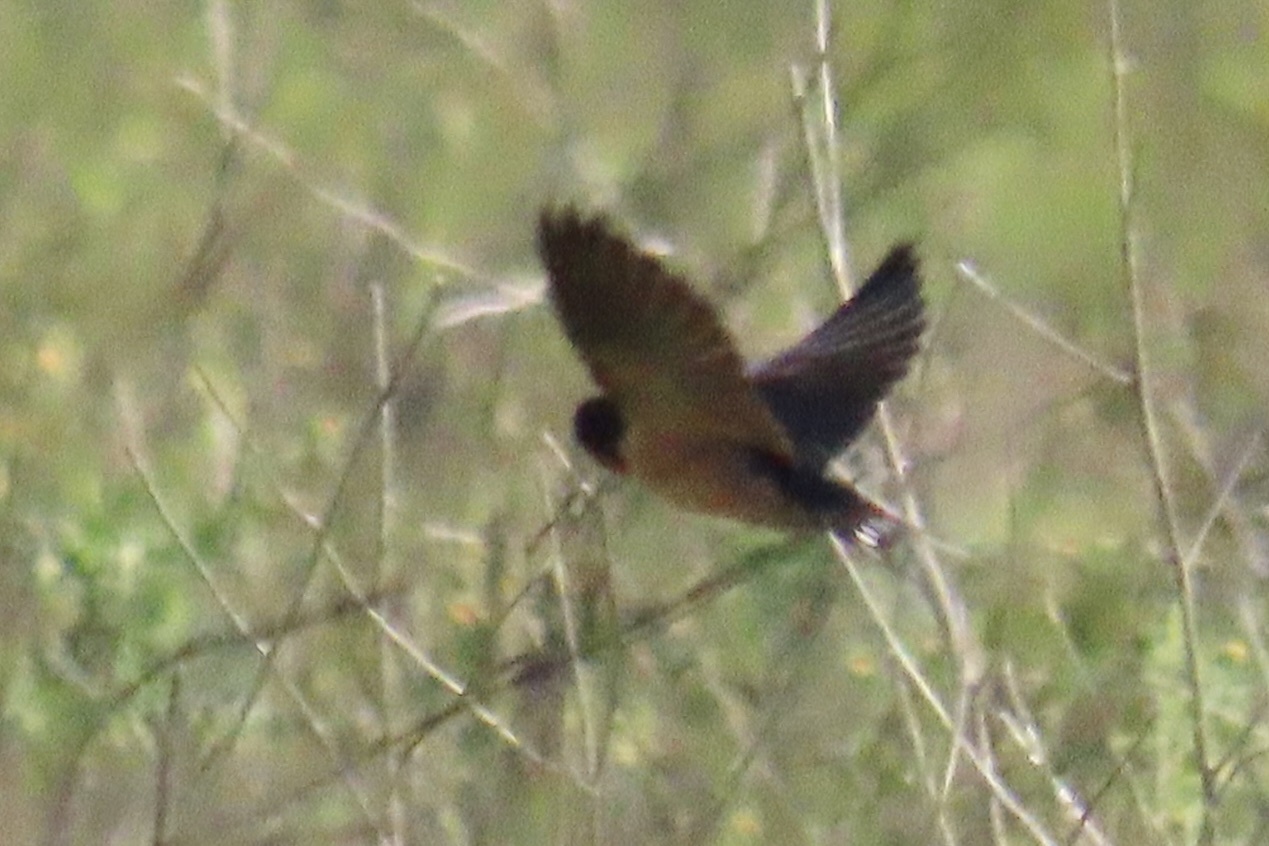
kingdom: Animalia
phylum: Chordata
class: Aves
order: Passeriformes
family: Hirundinidae
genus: Hirundo
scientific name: Hirundo rustica
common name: Barn swallow
